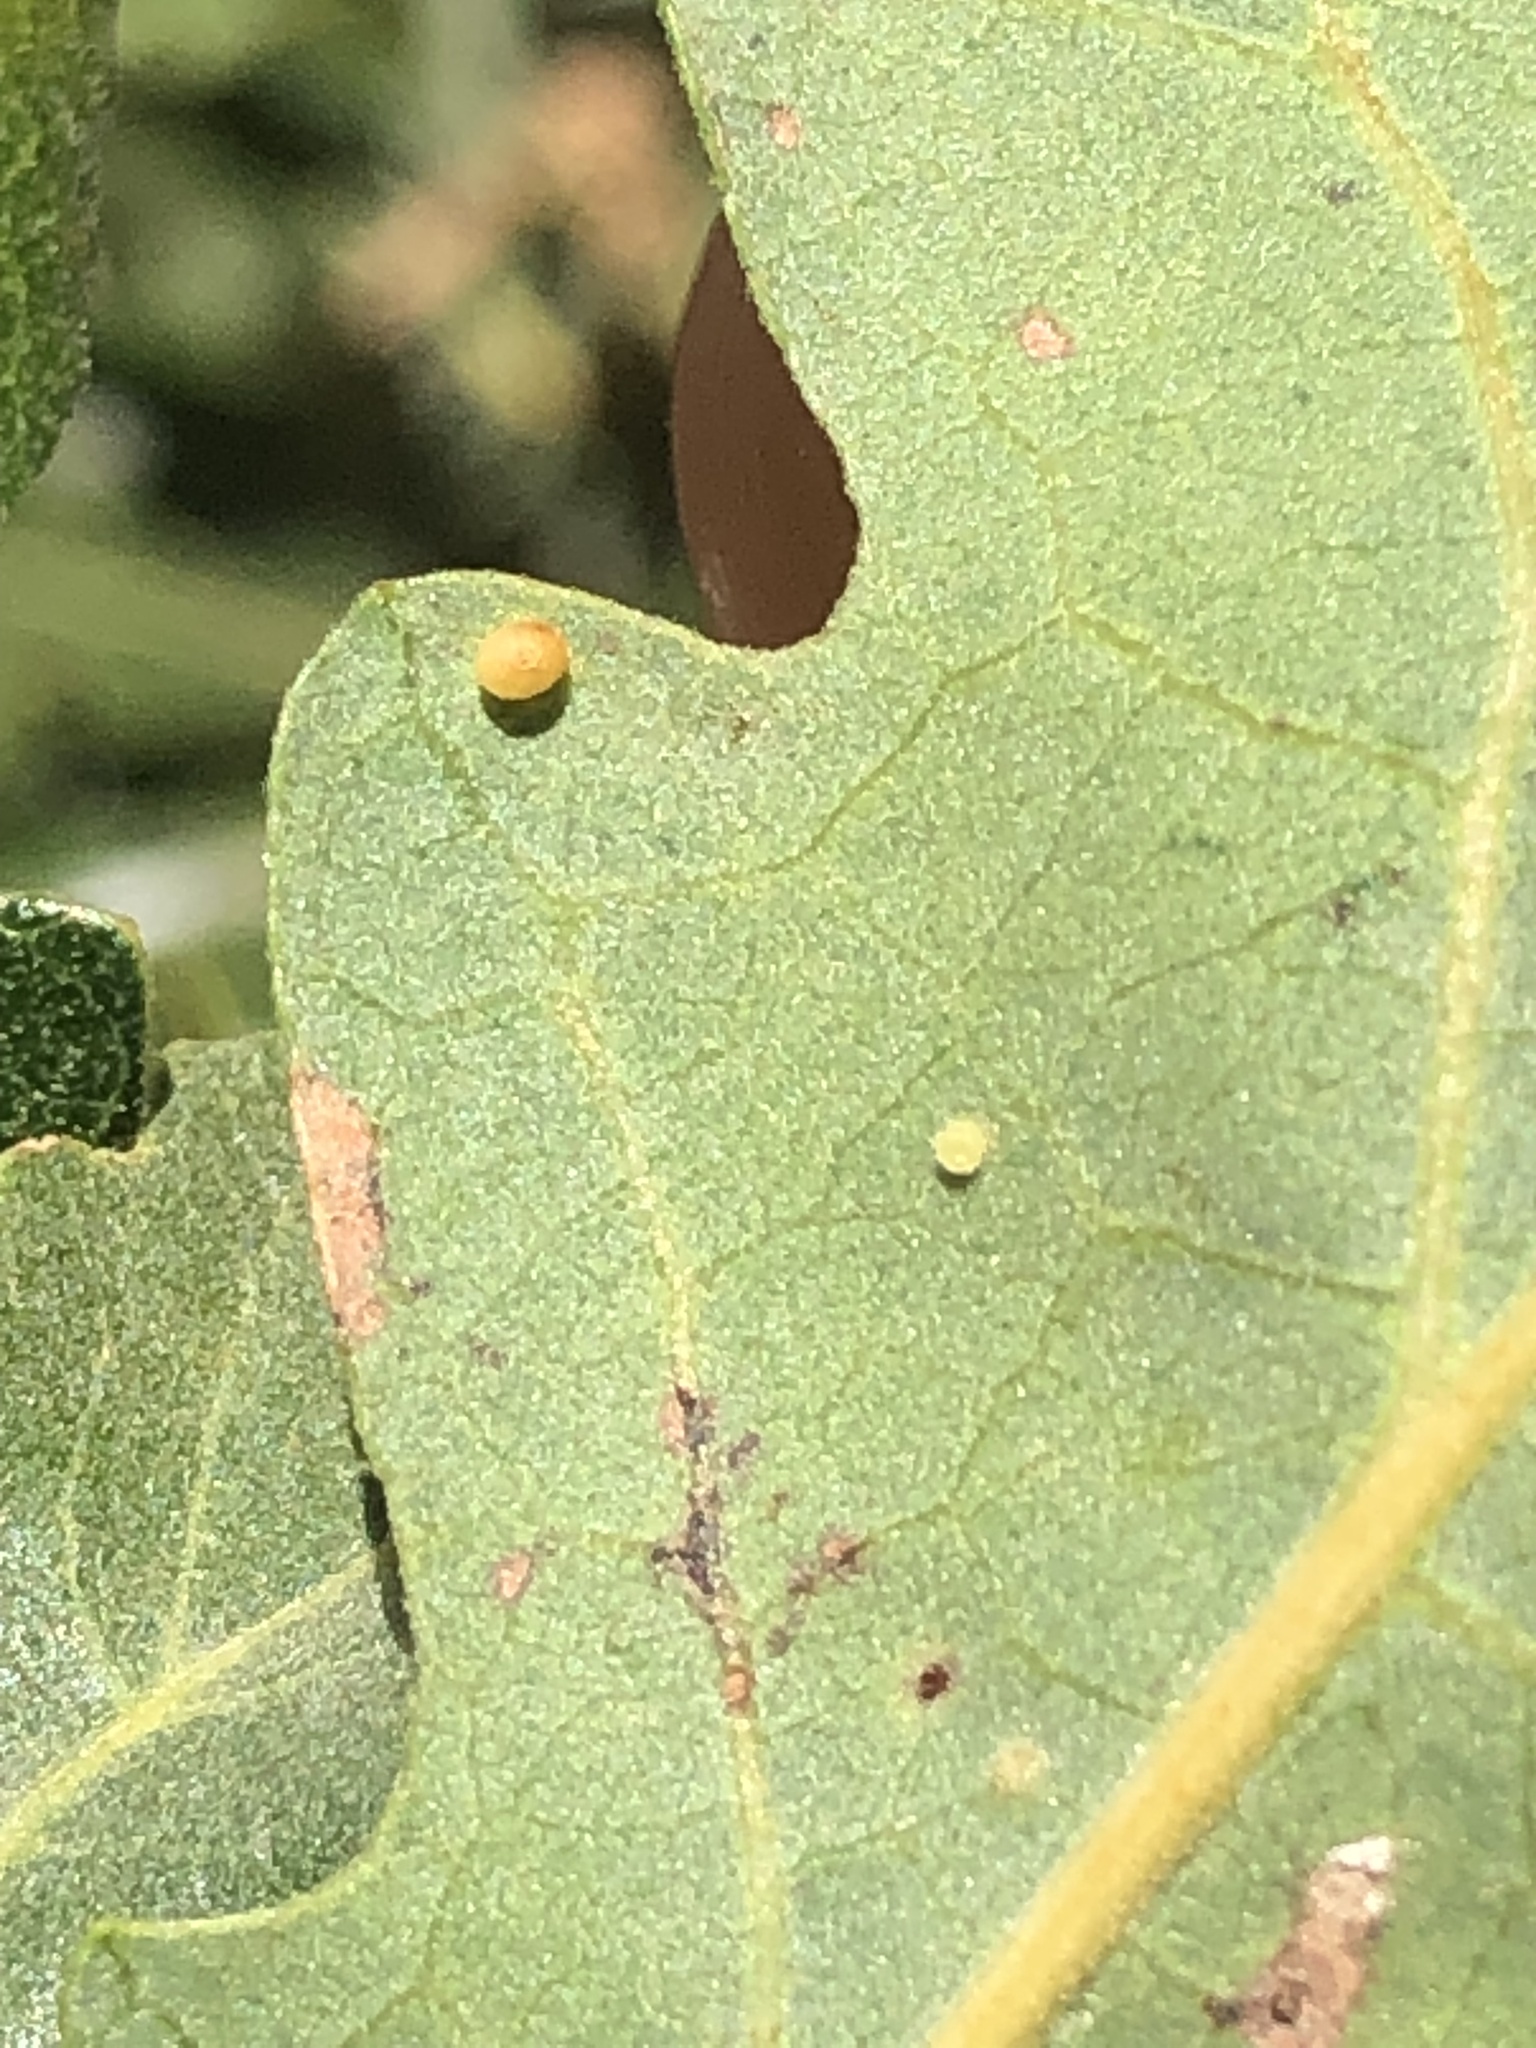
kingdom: Animalia
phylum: Arthropoda
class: Insecta
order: Hymenoptera
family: Cynipidae
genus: Neuroterus
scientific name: Neuroterus saltarius
